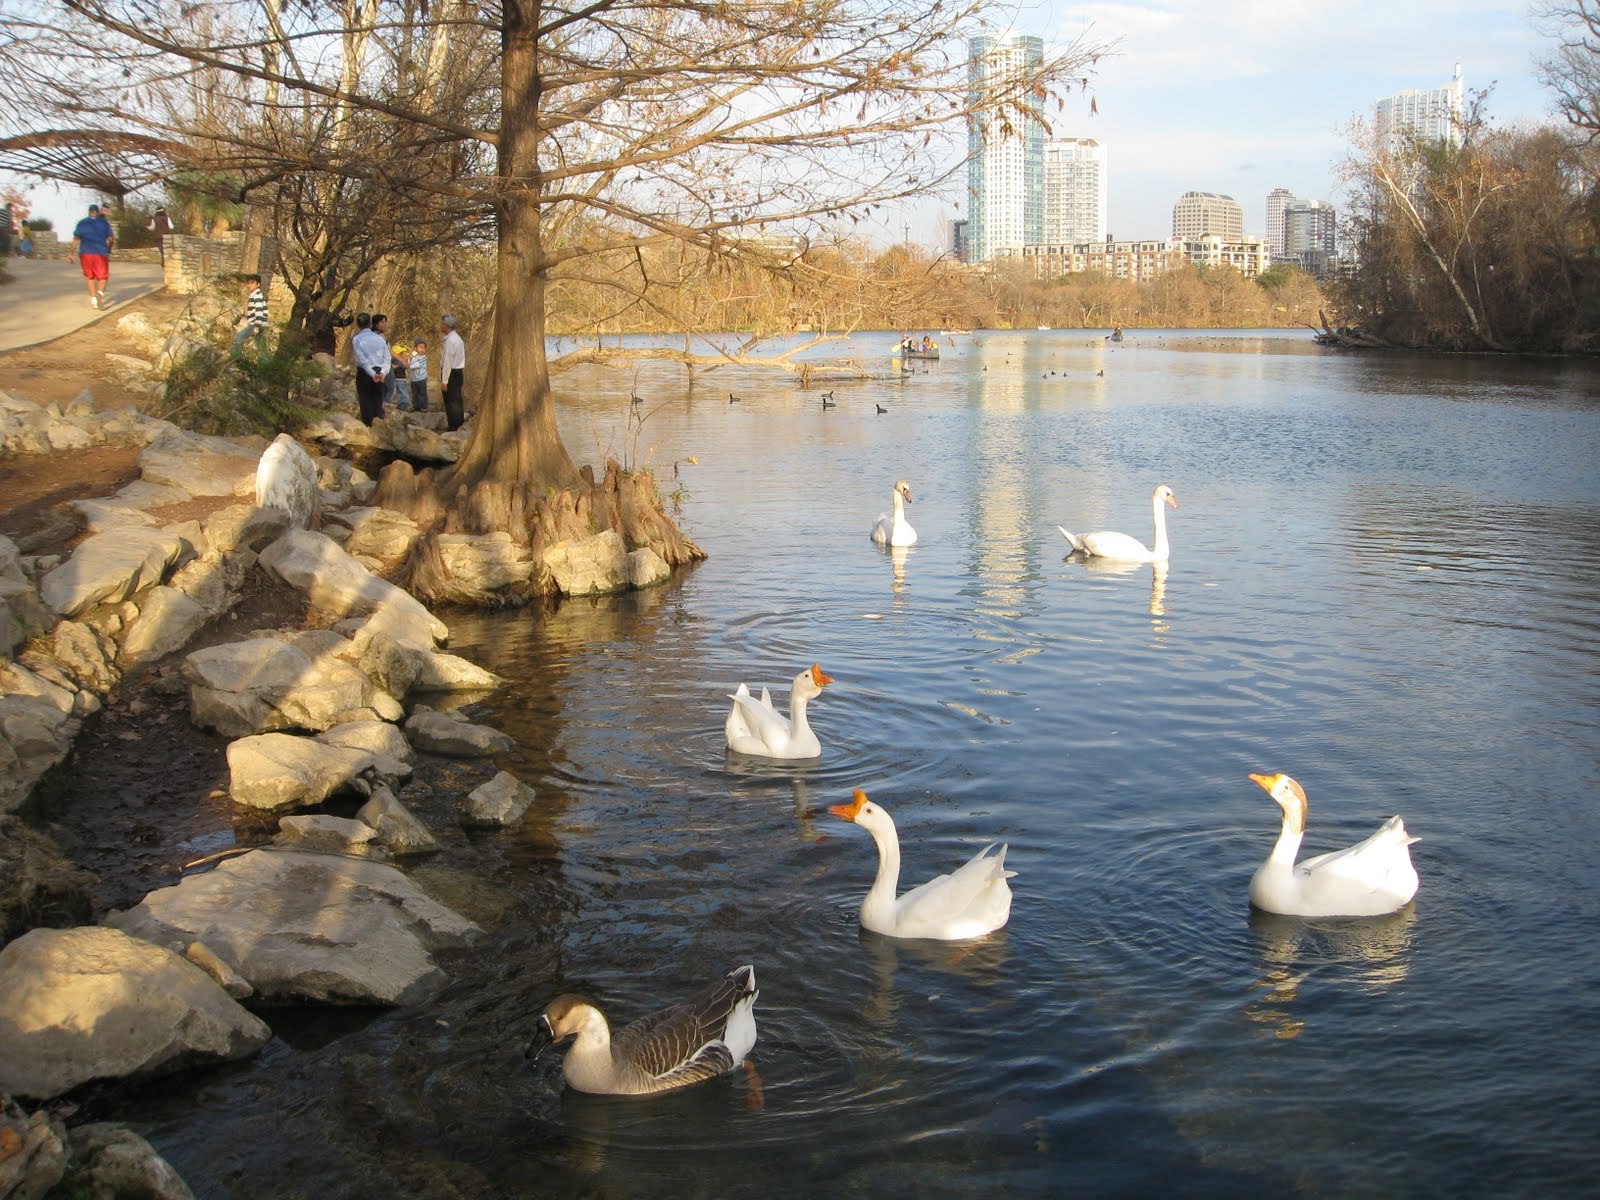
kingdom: Animalia
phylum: Chordata
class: Aves
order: Anseriformes
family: Anatidae
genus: Anser
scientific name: Anser cygnoides
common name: Swan goose
